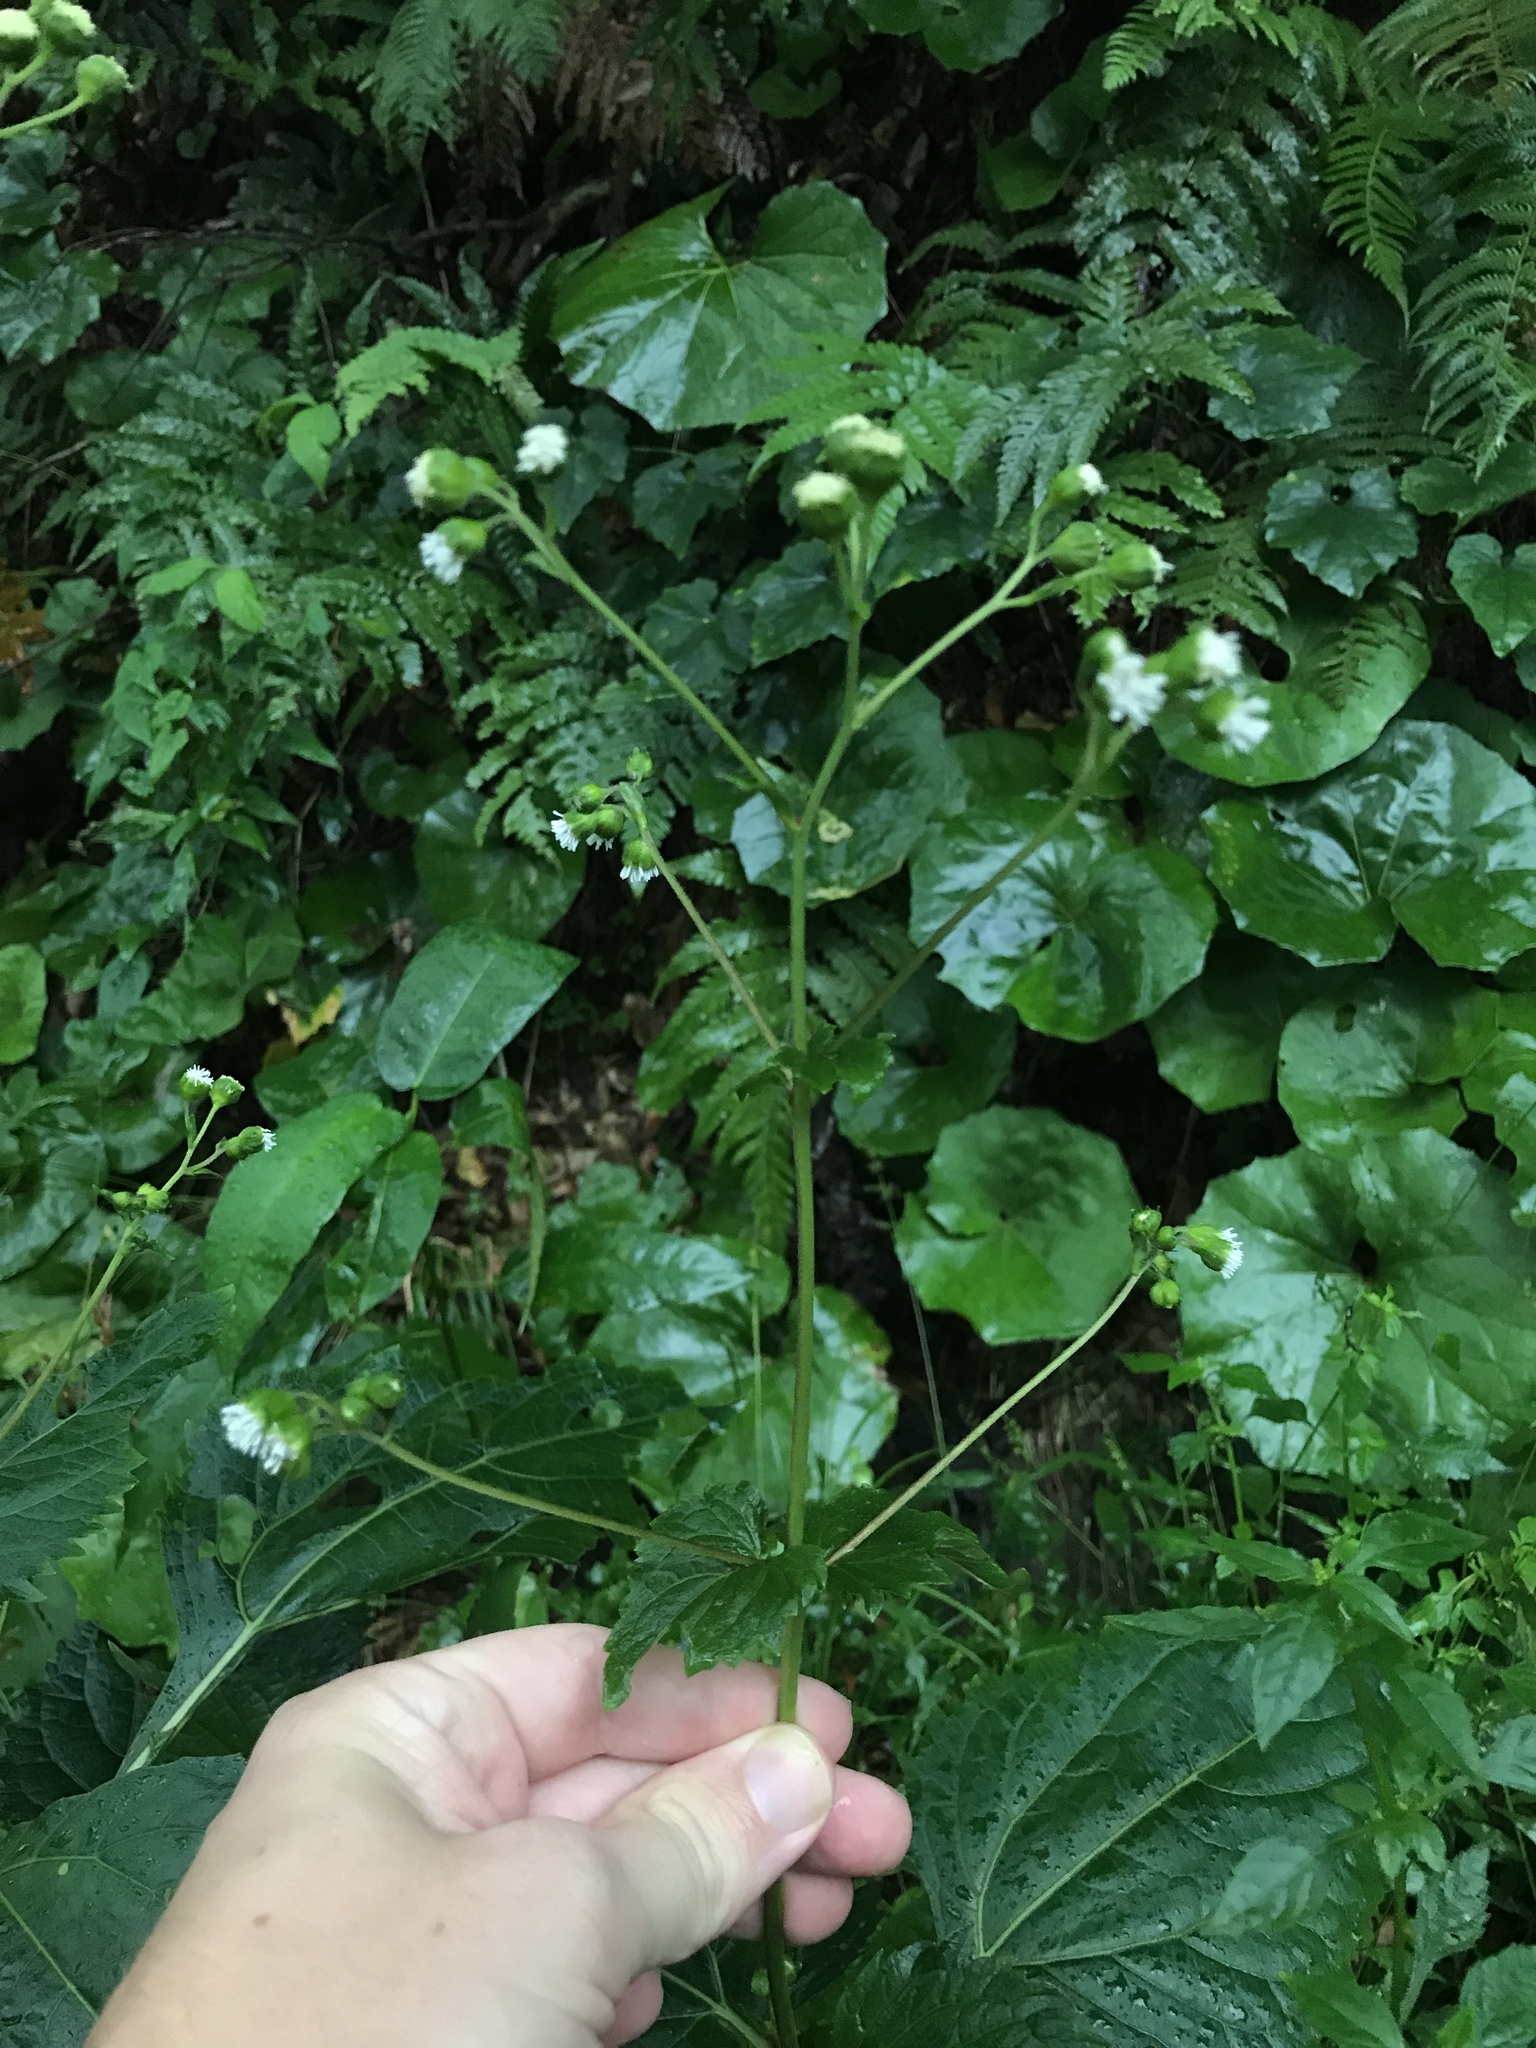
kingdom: Plantae
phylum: Tracheophyta
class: Magnoliopsida
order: Asterales
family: Asteraceae
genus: Adenostemma
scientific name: Adenostemma madurense
